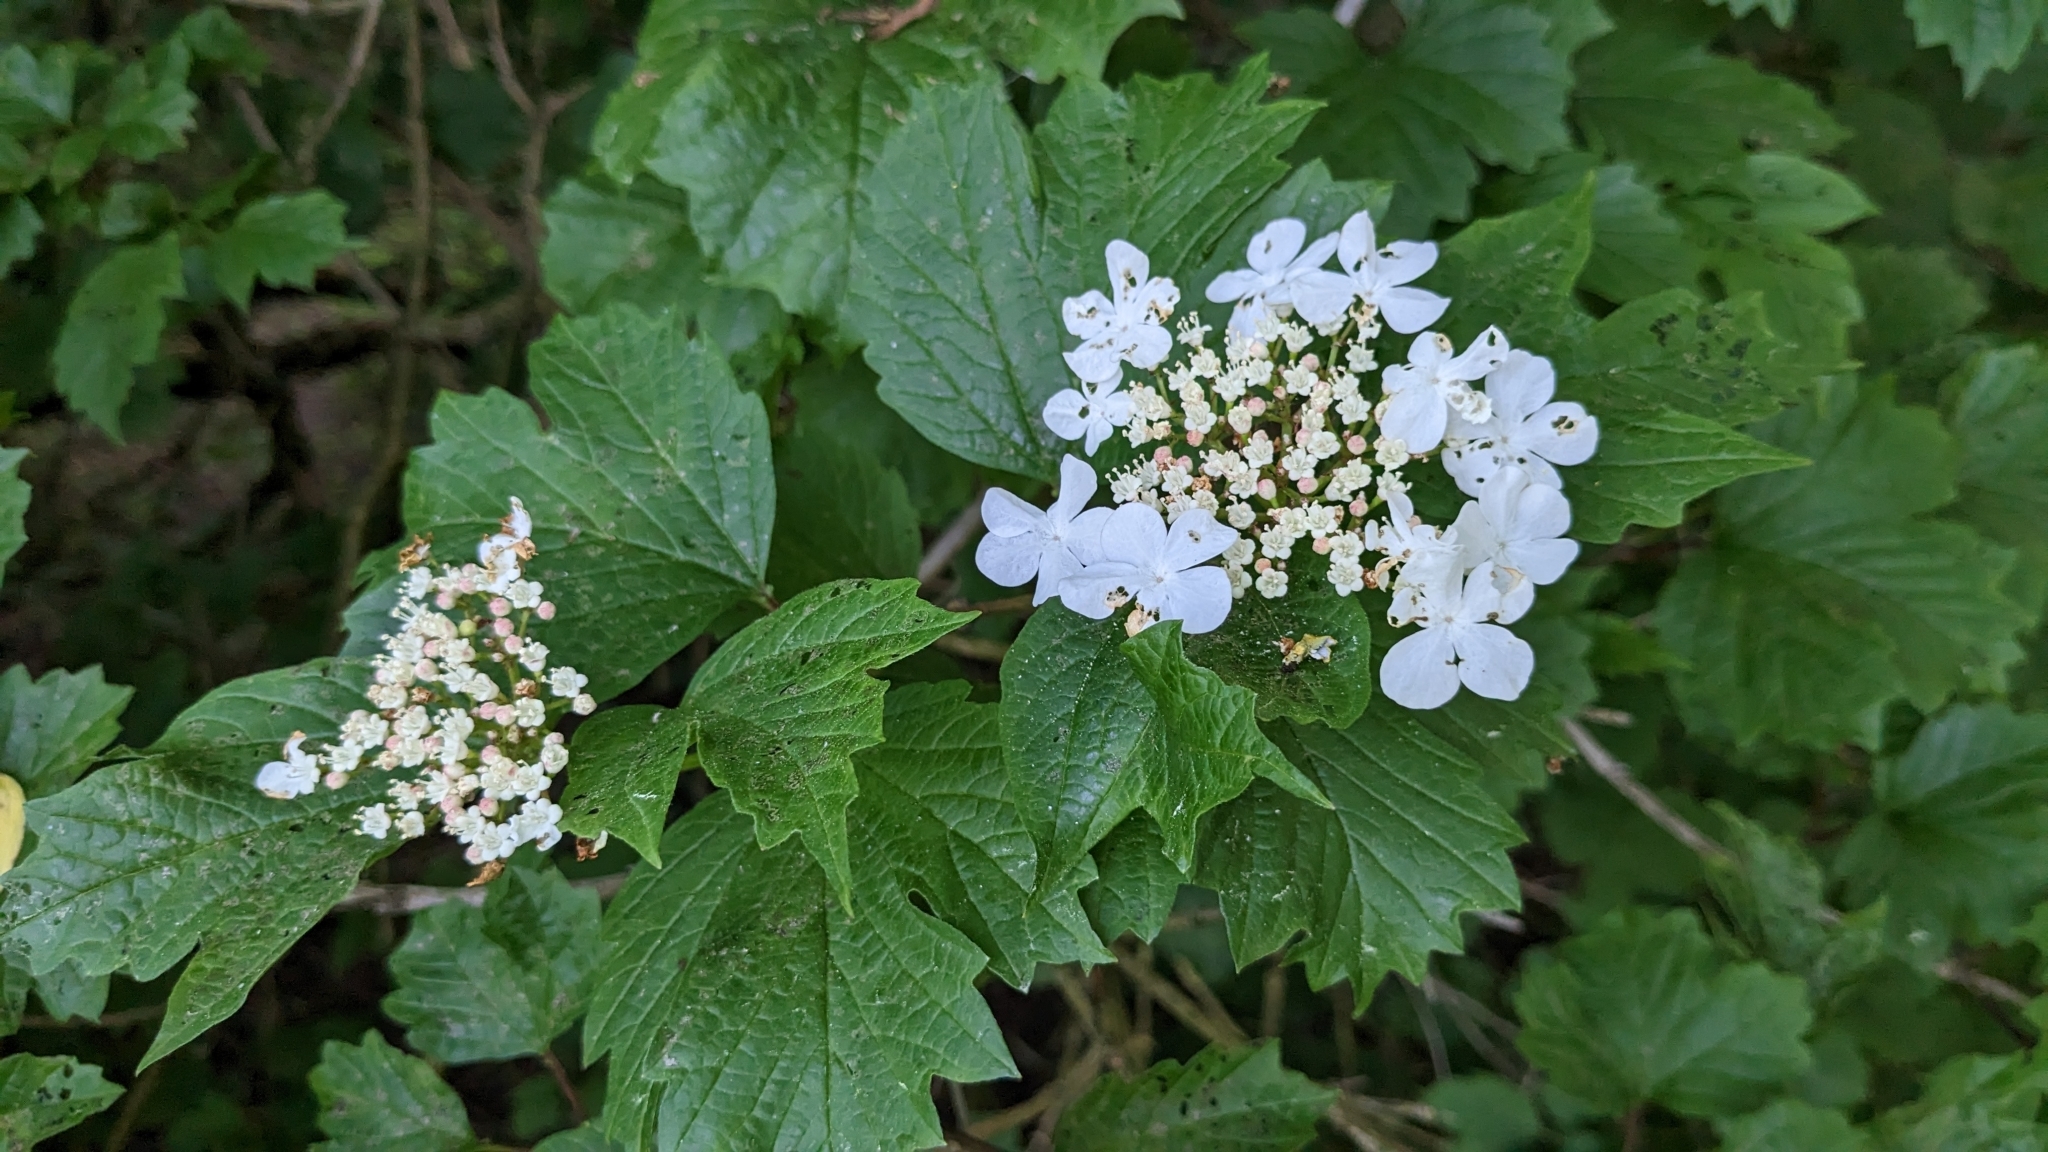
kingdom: Plantae
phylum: Tracheophyta
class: Magnoliopsida
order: Dipsacales
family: Viburnaceae
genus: Viburnum
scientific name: Viburnum opulus
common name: Guelder-rose
